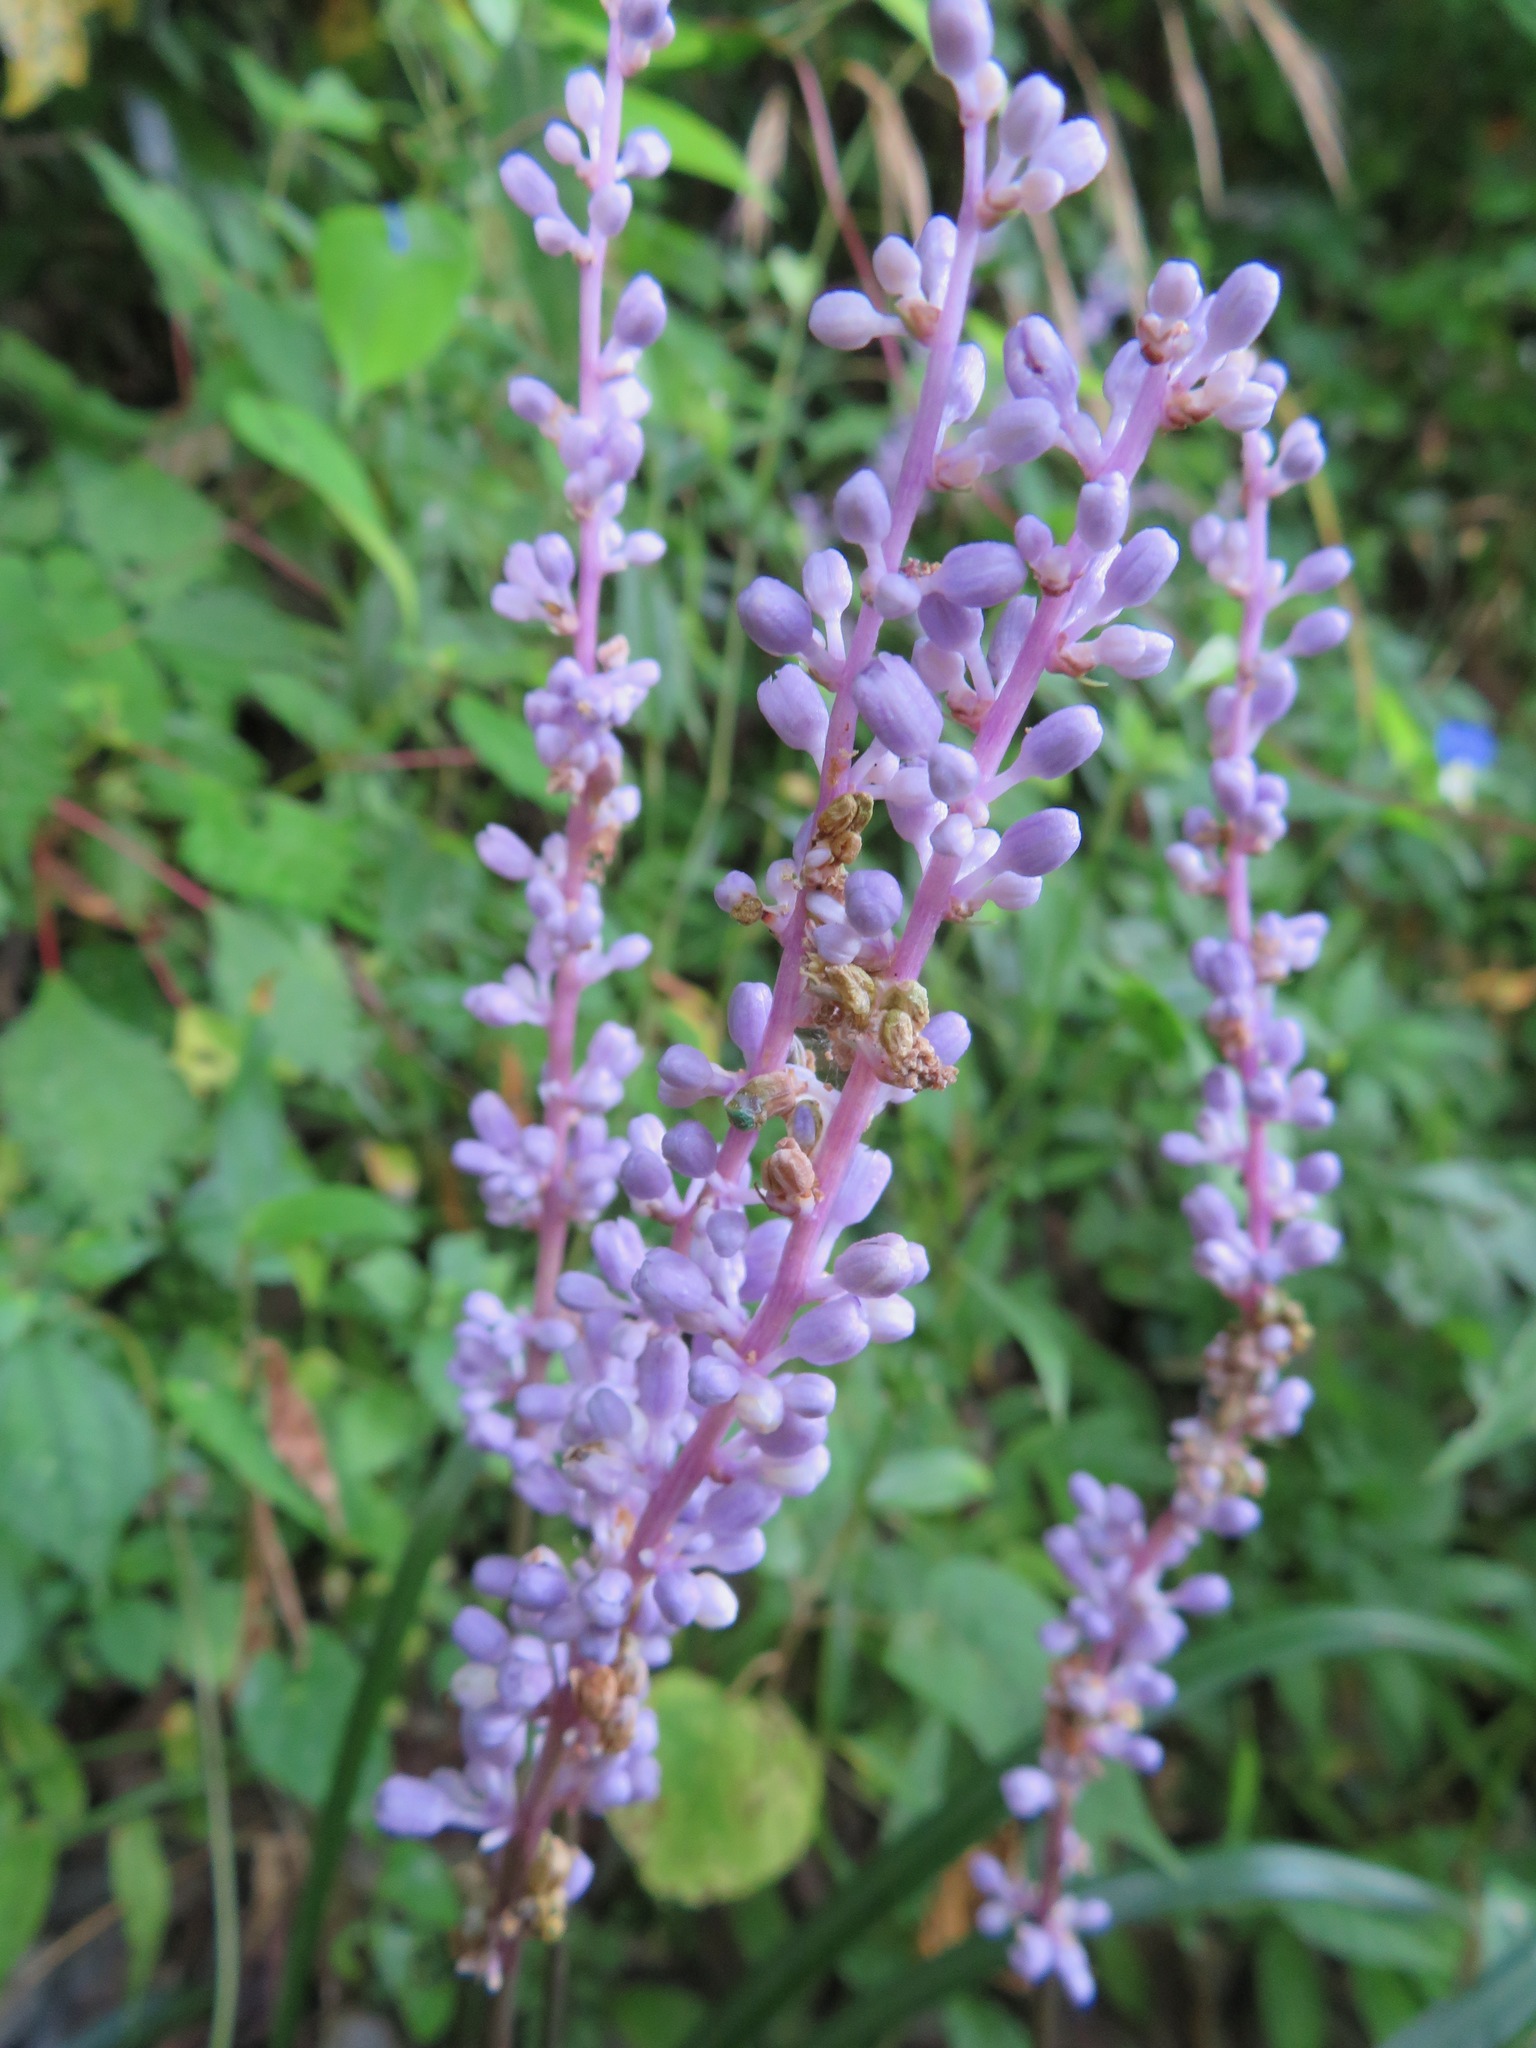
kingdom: Plantae
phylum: Tracheophyta
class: Liliopsida
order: Asparagales
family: Asparagaceae
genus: Liriope
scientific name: Liriope muscari
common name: Big blue lilyturf
